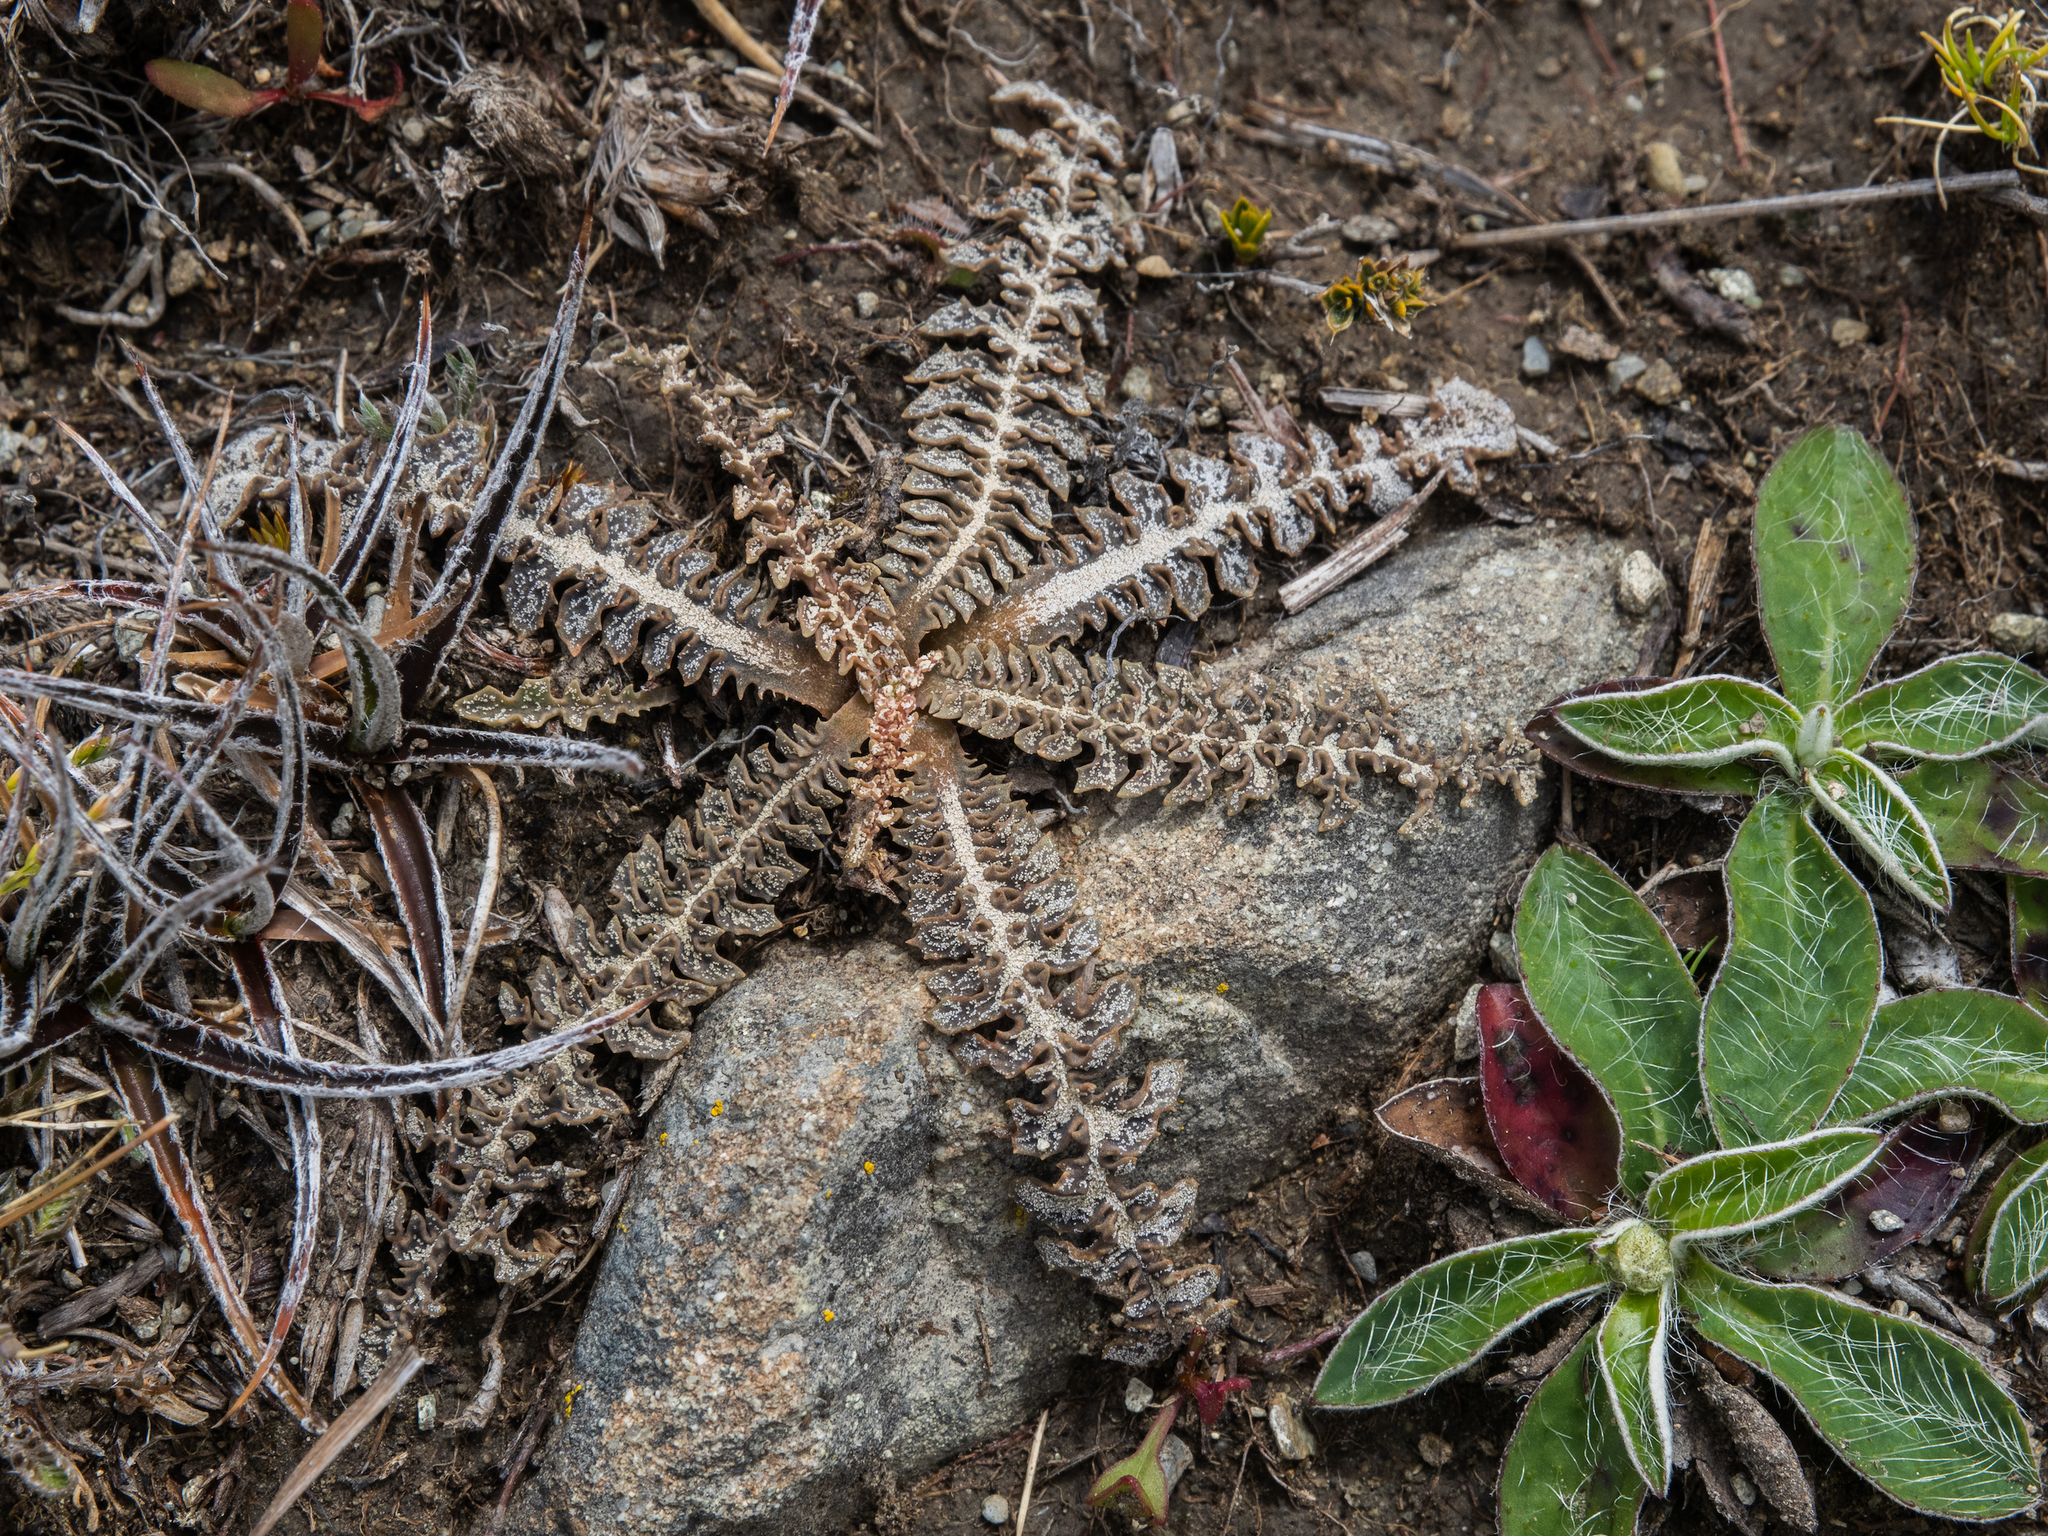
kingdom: Plantae
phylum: Tracheophyta
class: Magnoliopsida
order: Asterales
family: Asteraceae
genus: Sonchus
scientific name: Sonchus novae-zelandiae
